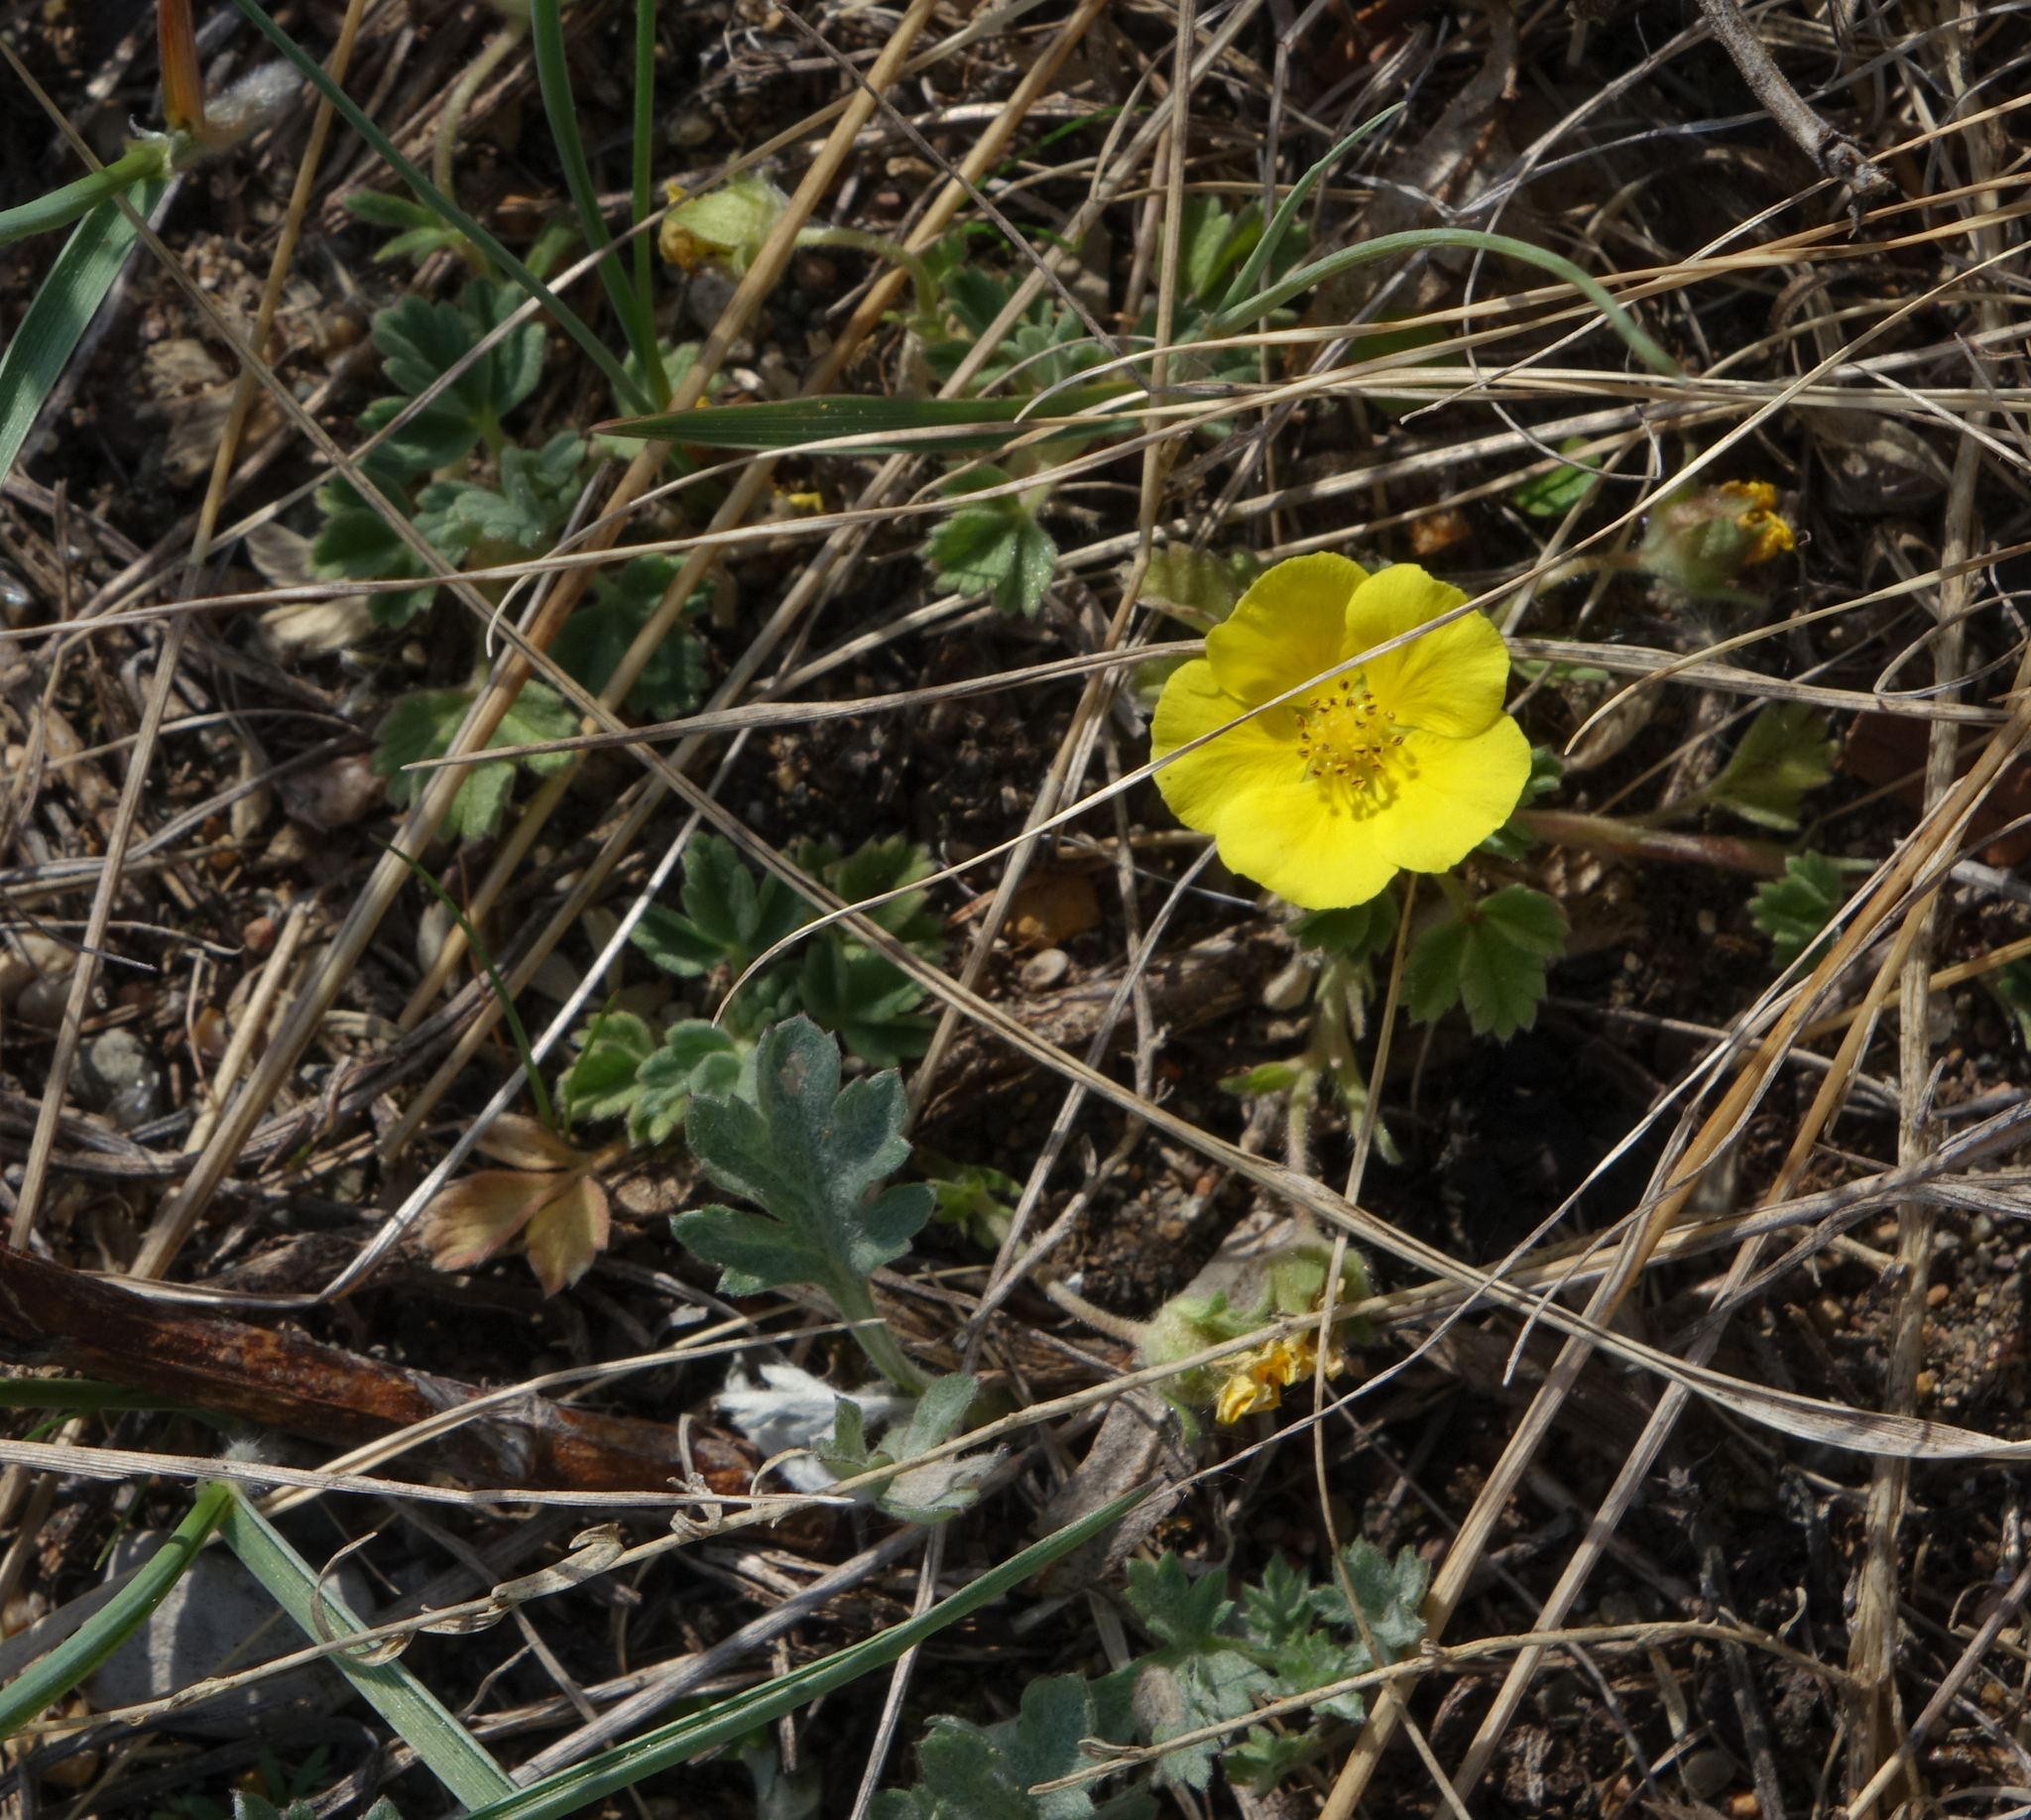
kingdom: Plantae
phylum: Tracheophyta
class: Magnoliopsida
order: Rosales
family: Rosaceae
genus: Potentilla
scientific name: Potentilla acaulis
